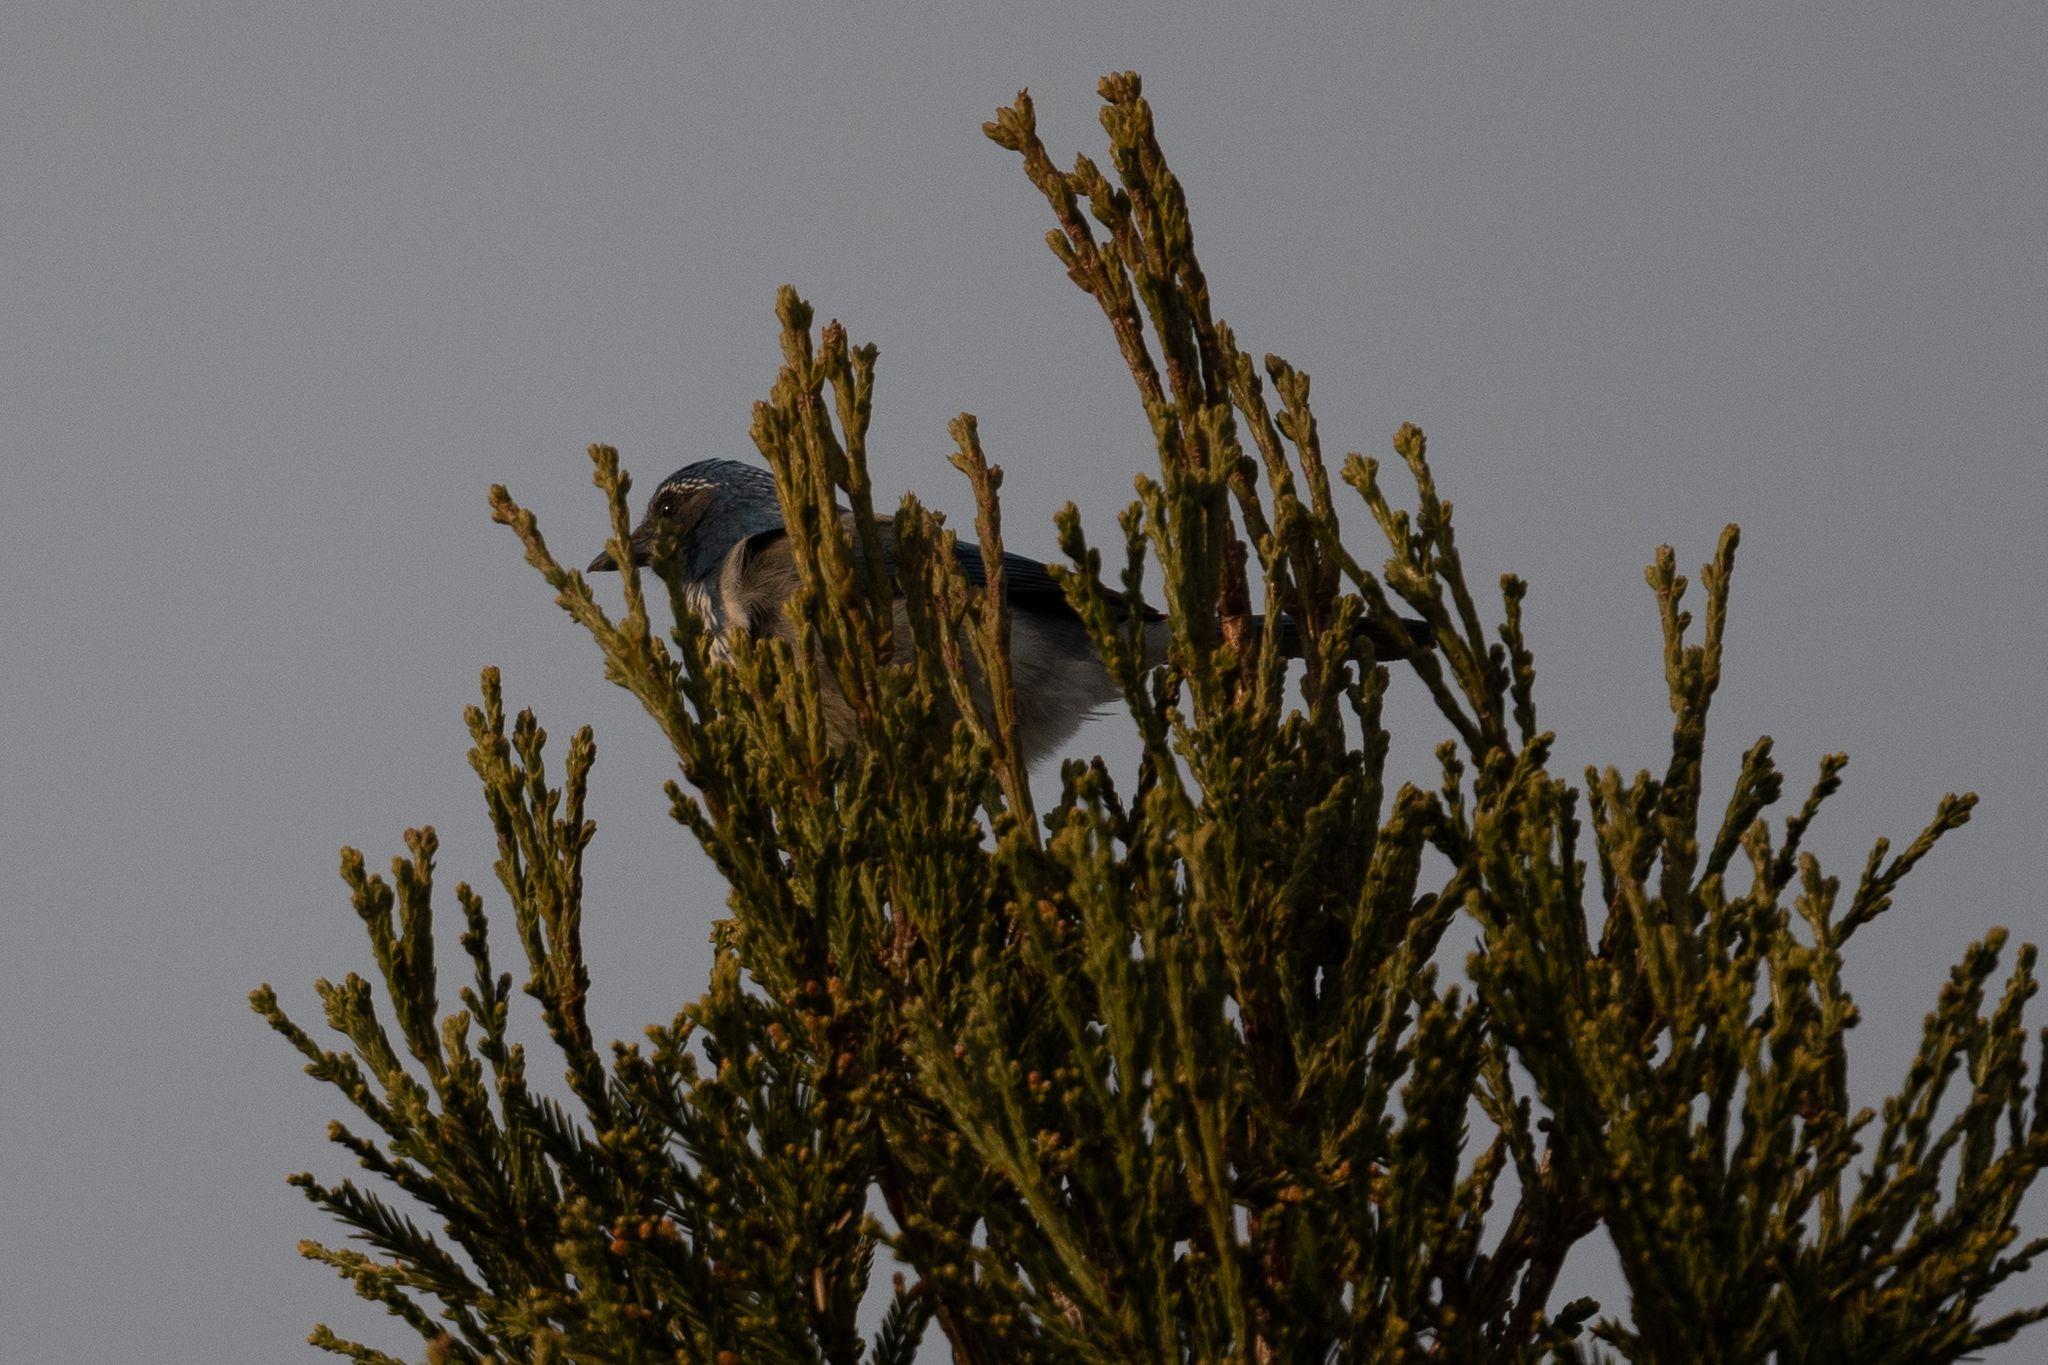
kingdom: Animalia
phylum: Chordata
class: Aves
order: Passeriformes
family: Corvidae
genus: Aphelocoma
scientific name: Aphelocoma californica
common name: California scrub-jay
